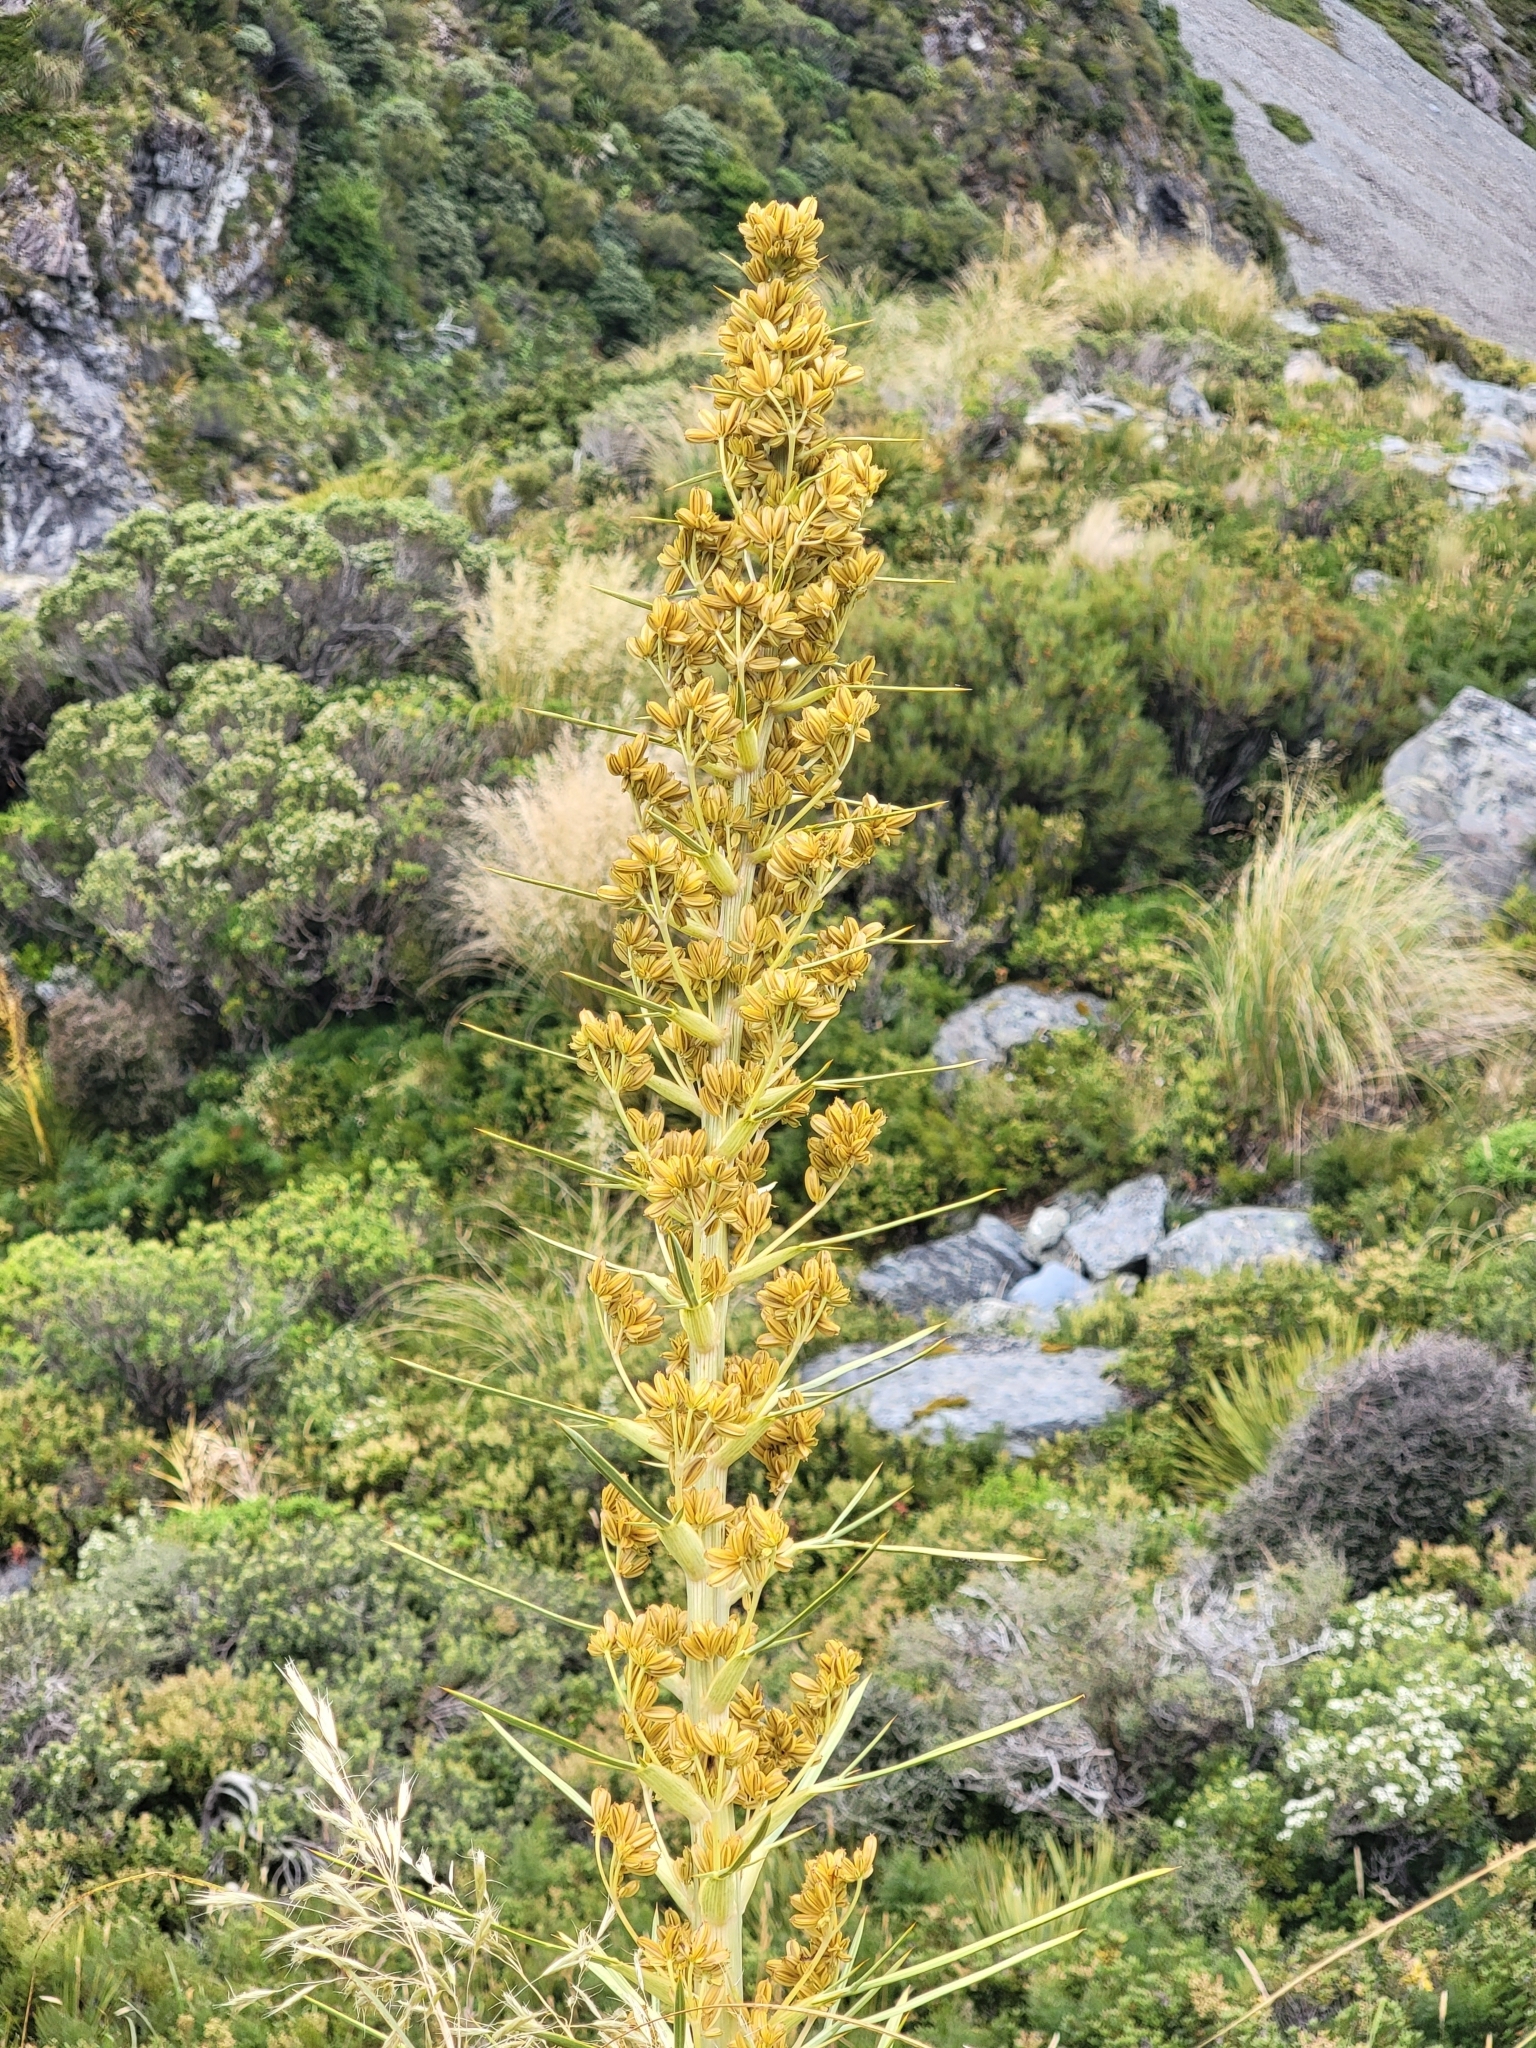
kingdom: Plantae
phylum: Tracheophyta
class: Magnoliopsida
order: Apiales
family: Apiaceae
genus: Aciphylla
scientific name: Aciphylla scott-thomsonii
